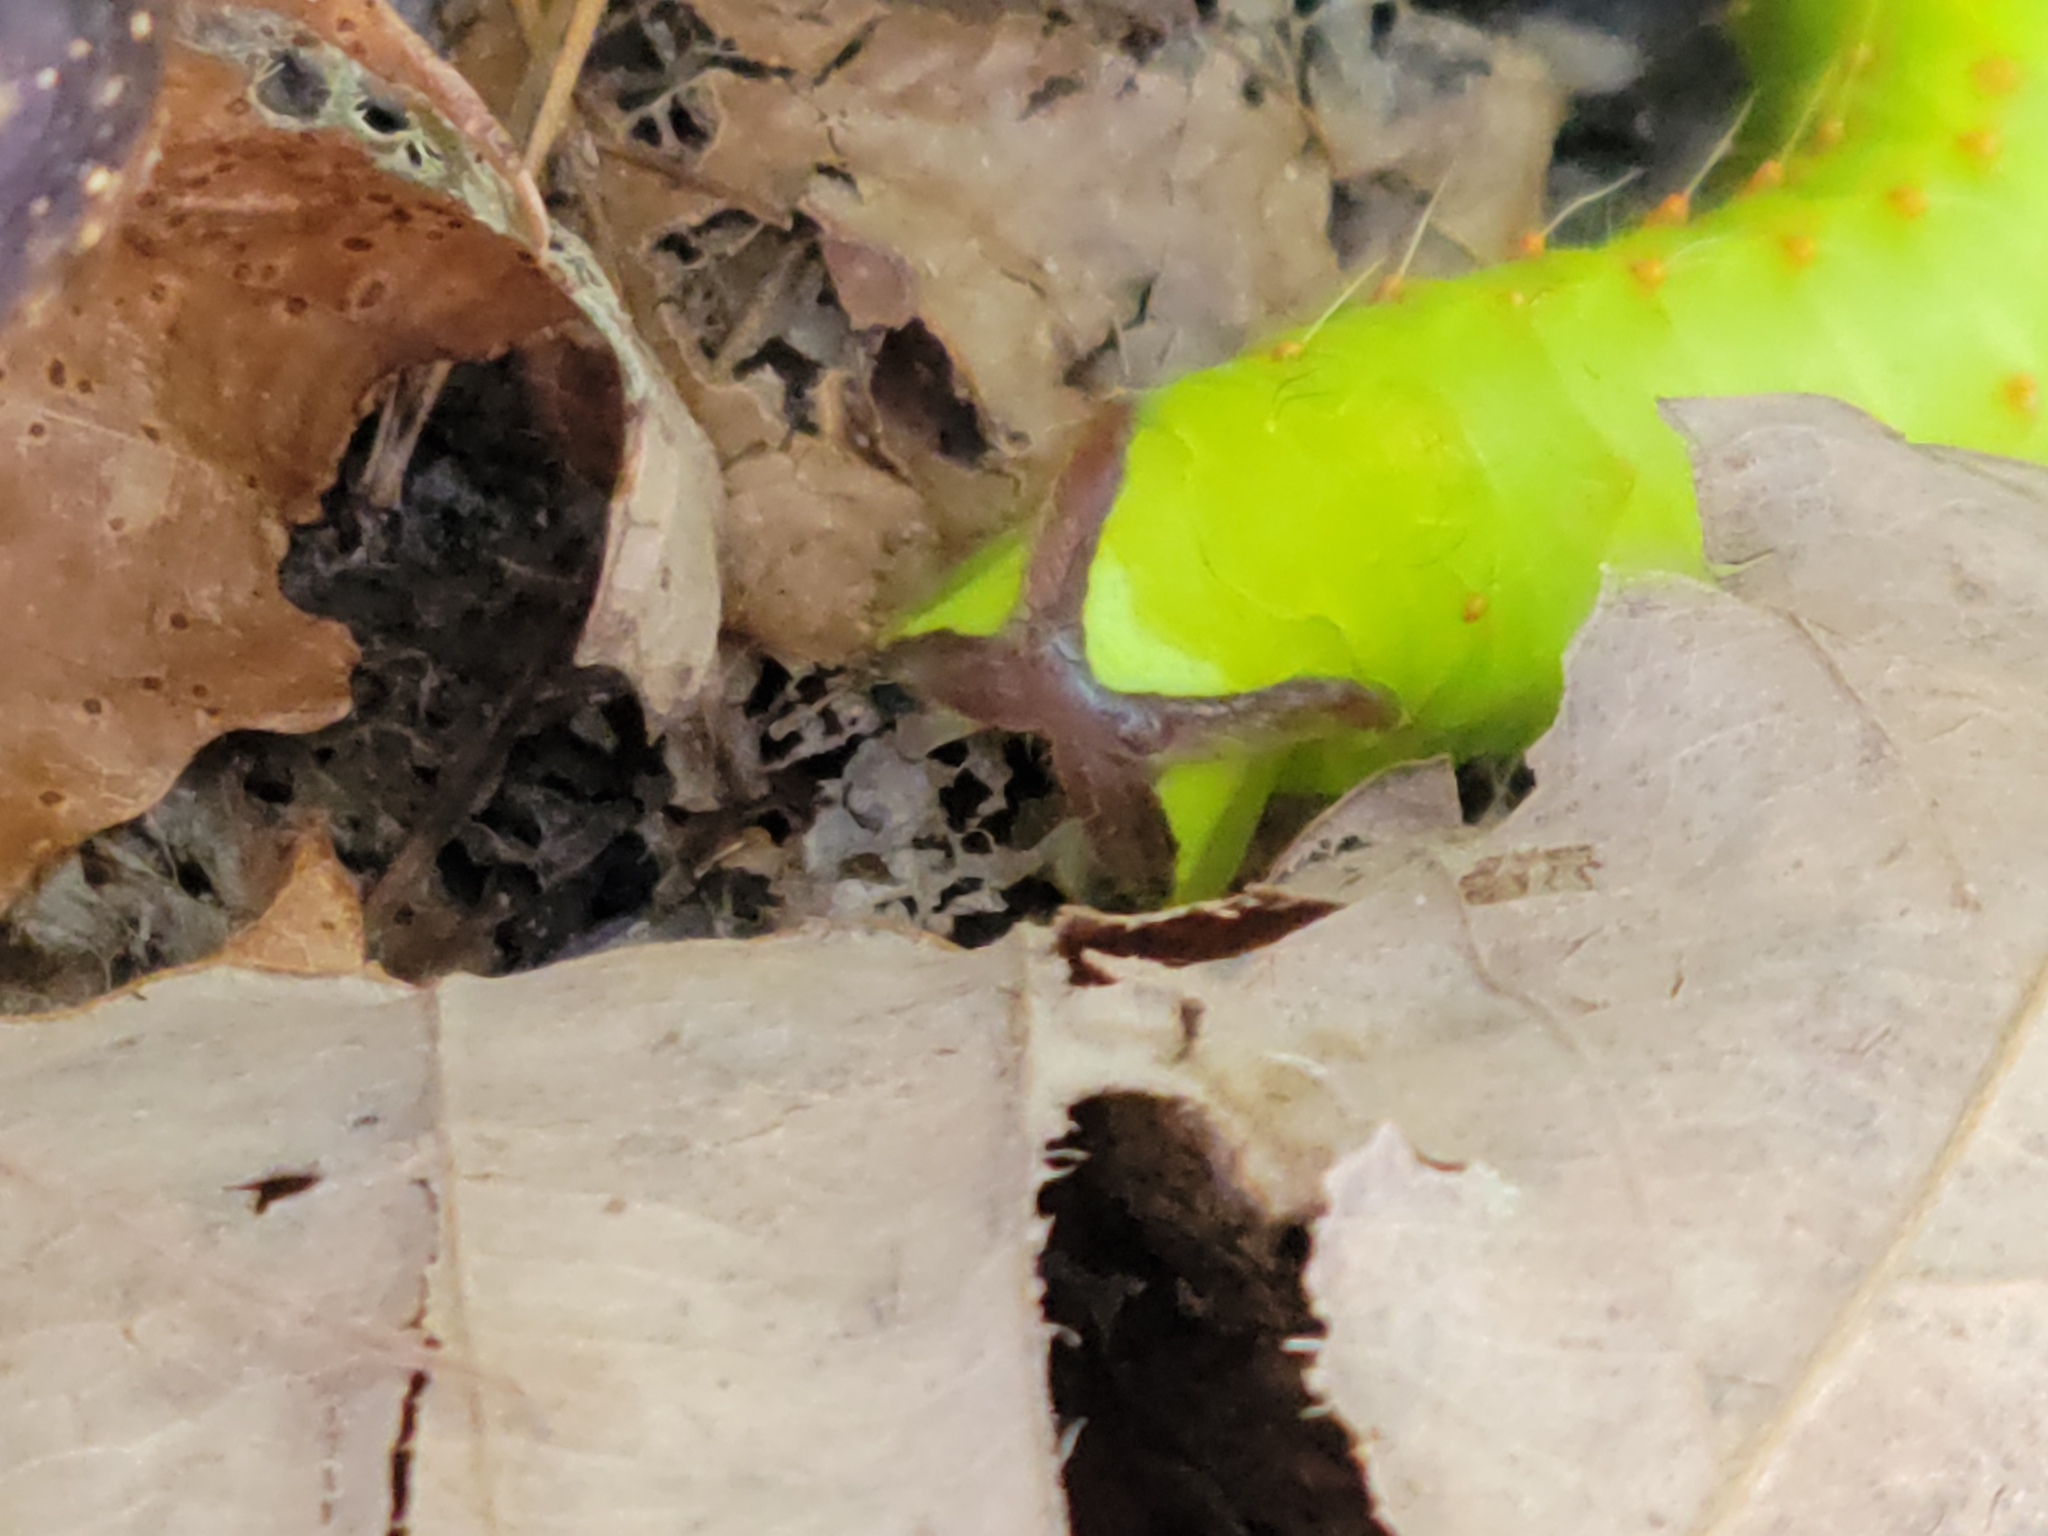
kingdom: Animalia
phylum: Arthropoda
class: Insecta
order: Lepidoptera
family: Saturniidae
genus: Antheraea
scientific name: Antheraea polyphemus
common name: Polyphemus moth
